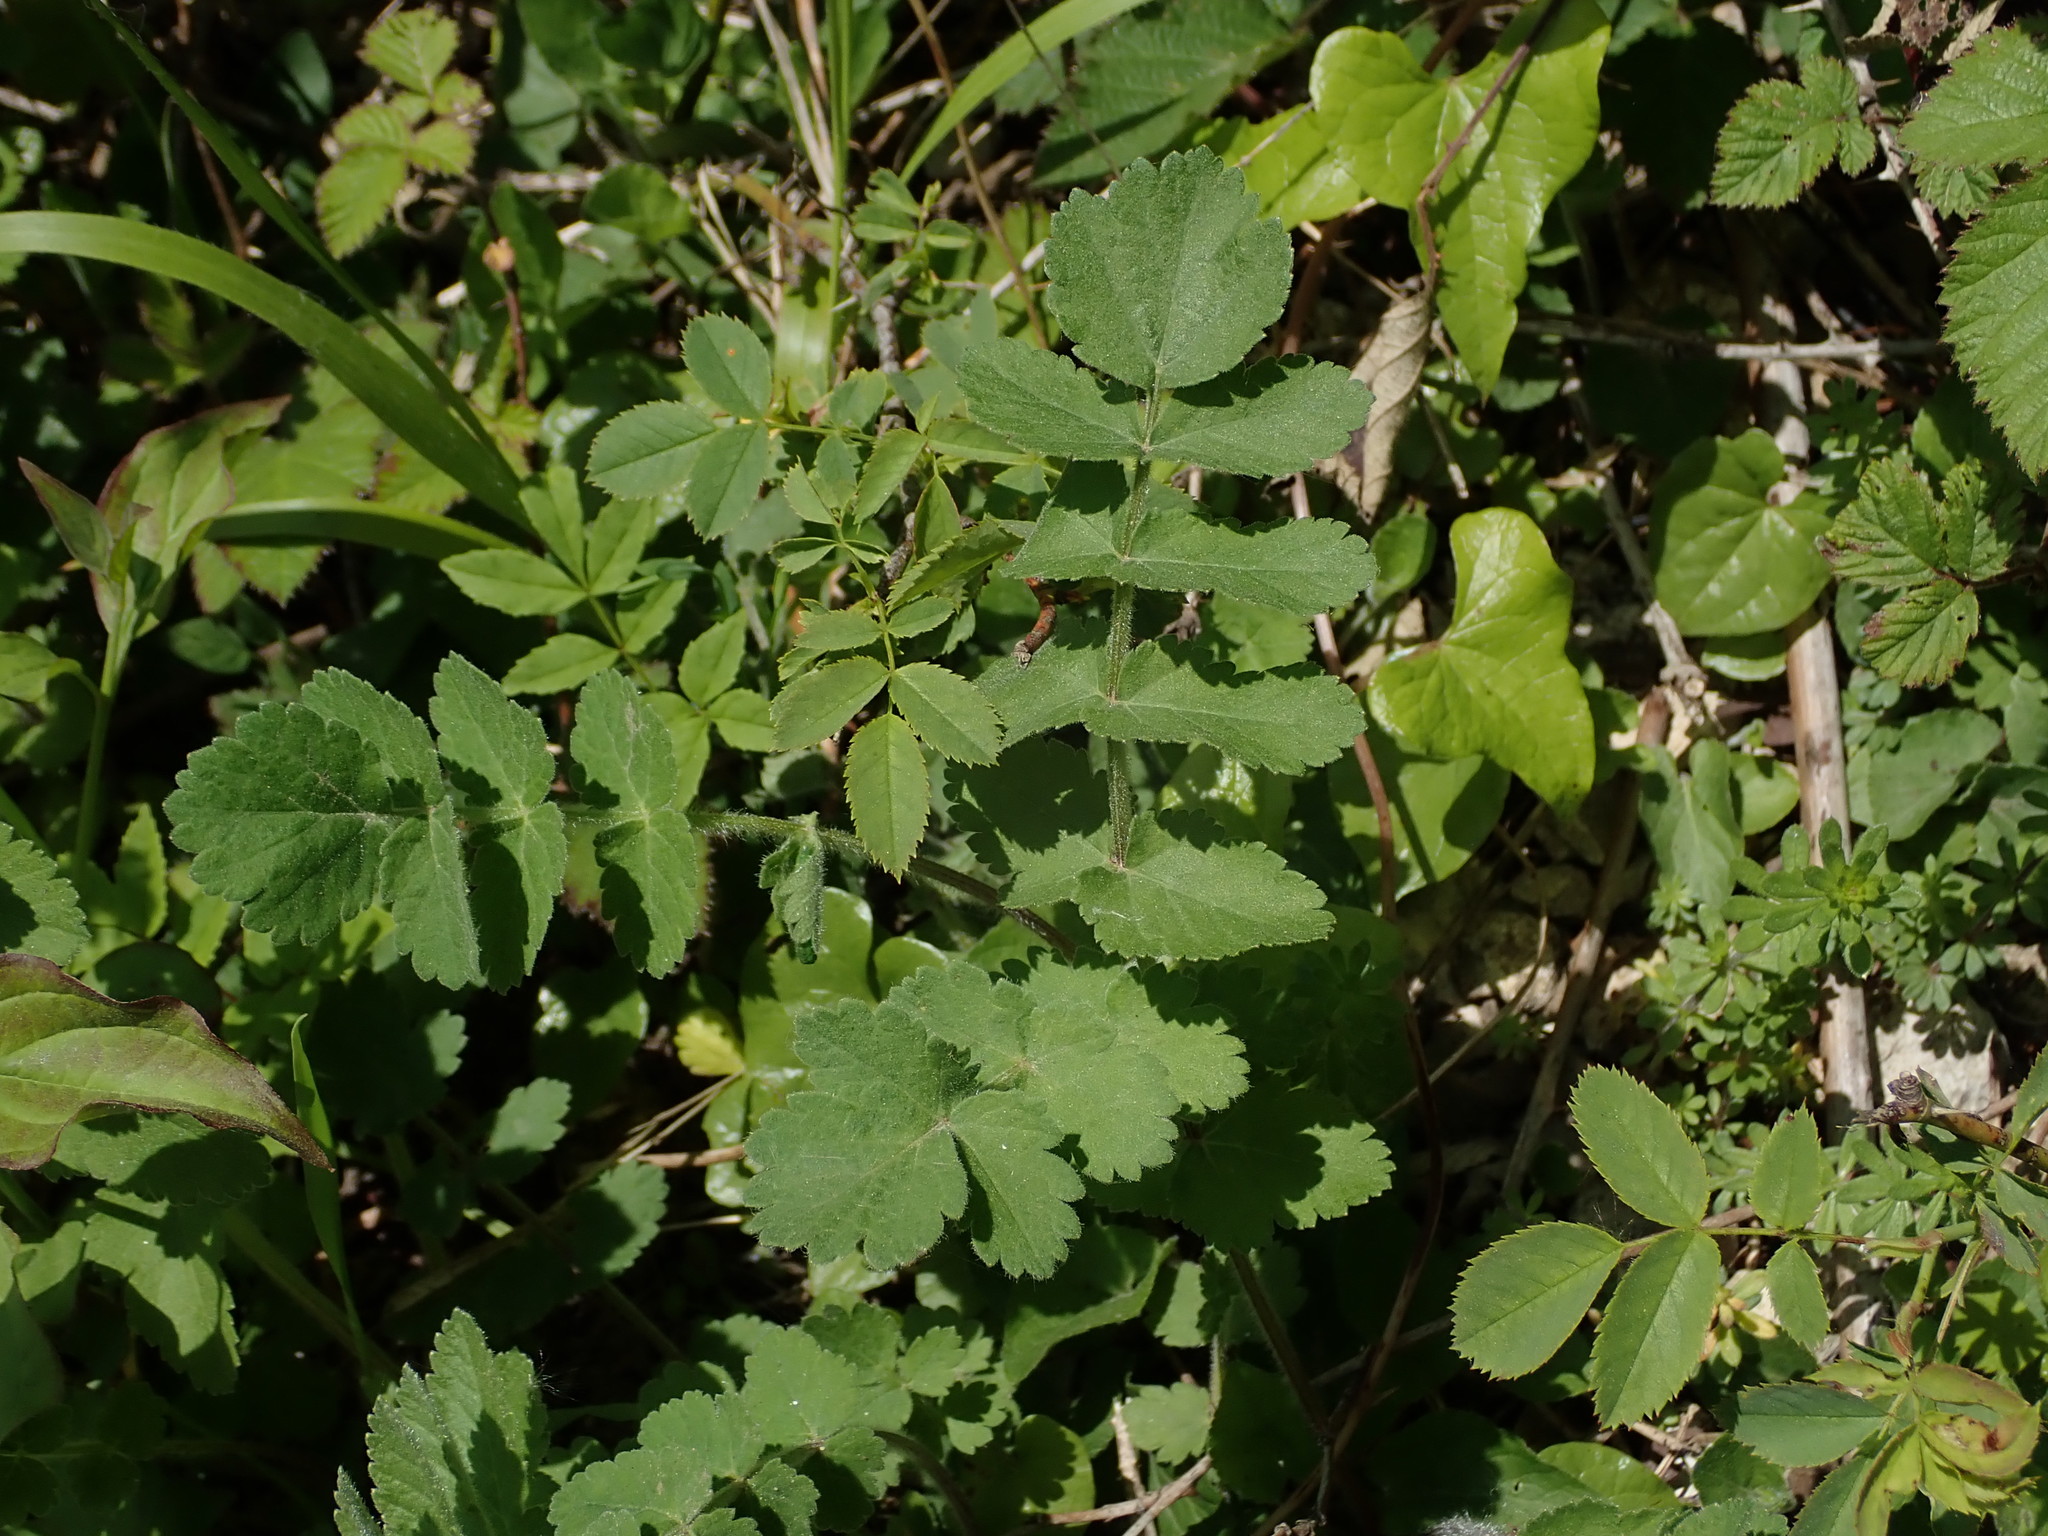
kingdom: Plantae
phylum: Tracheophyta
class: Magnoliopsida
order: Apiales
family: Apiaceae
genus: Pastinaca
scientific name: Pastinaca sativa
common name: Wild parsnip
